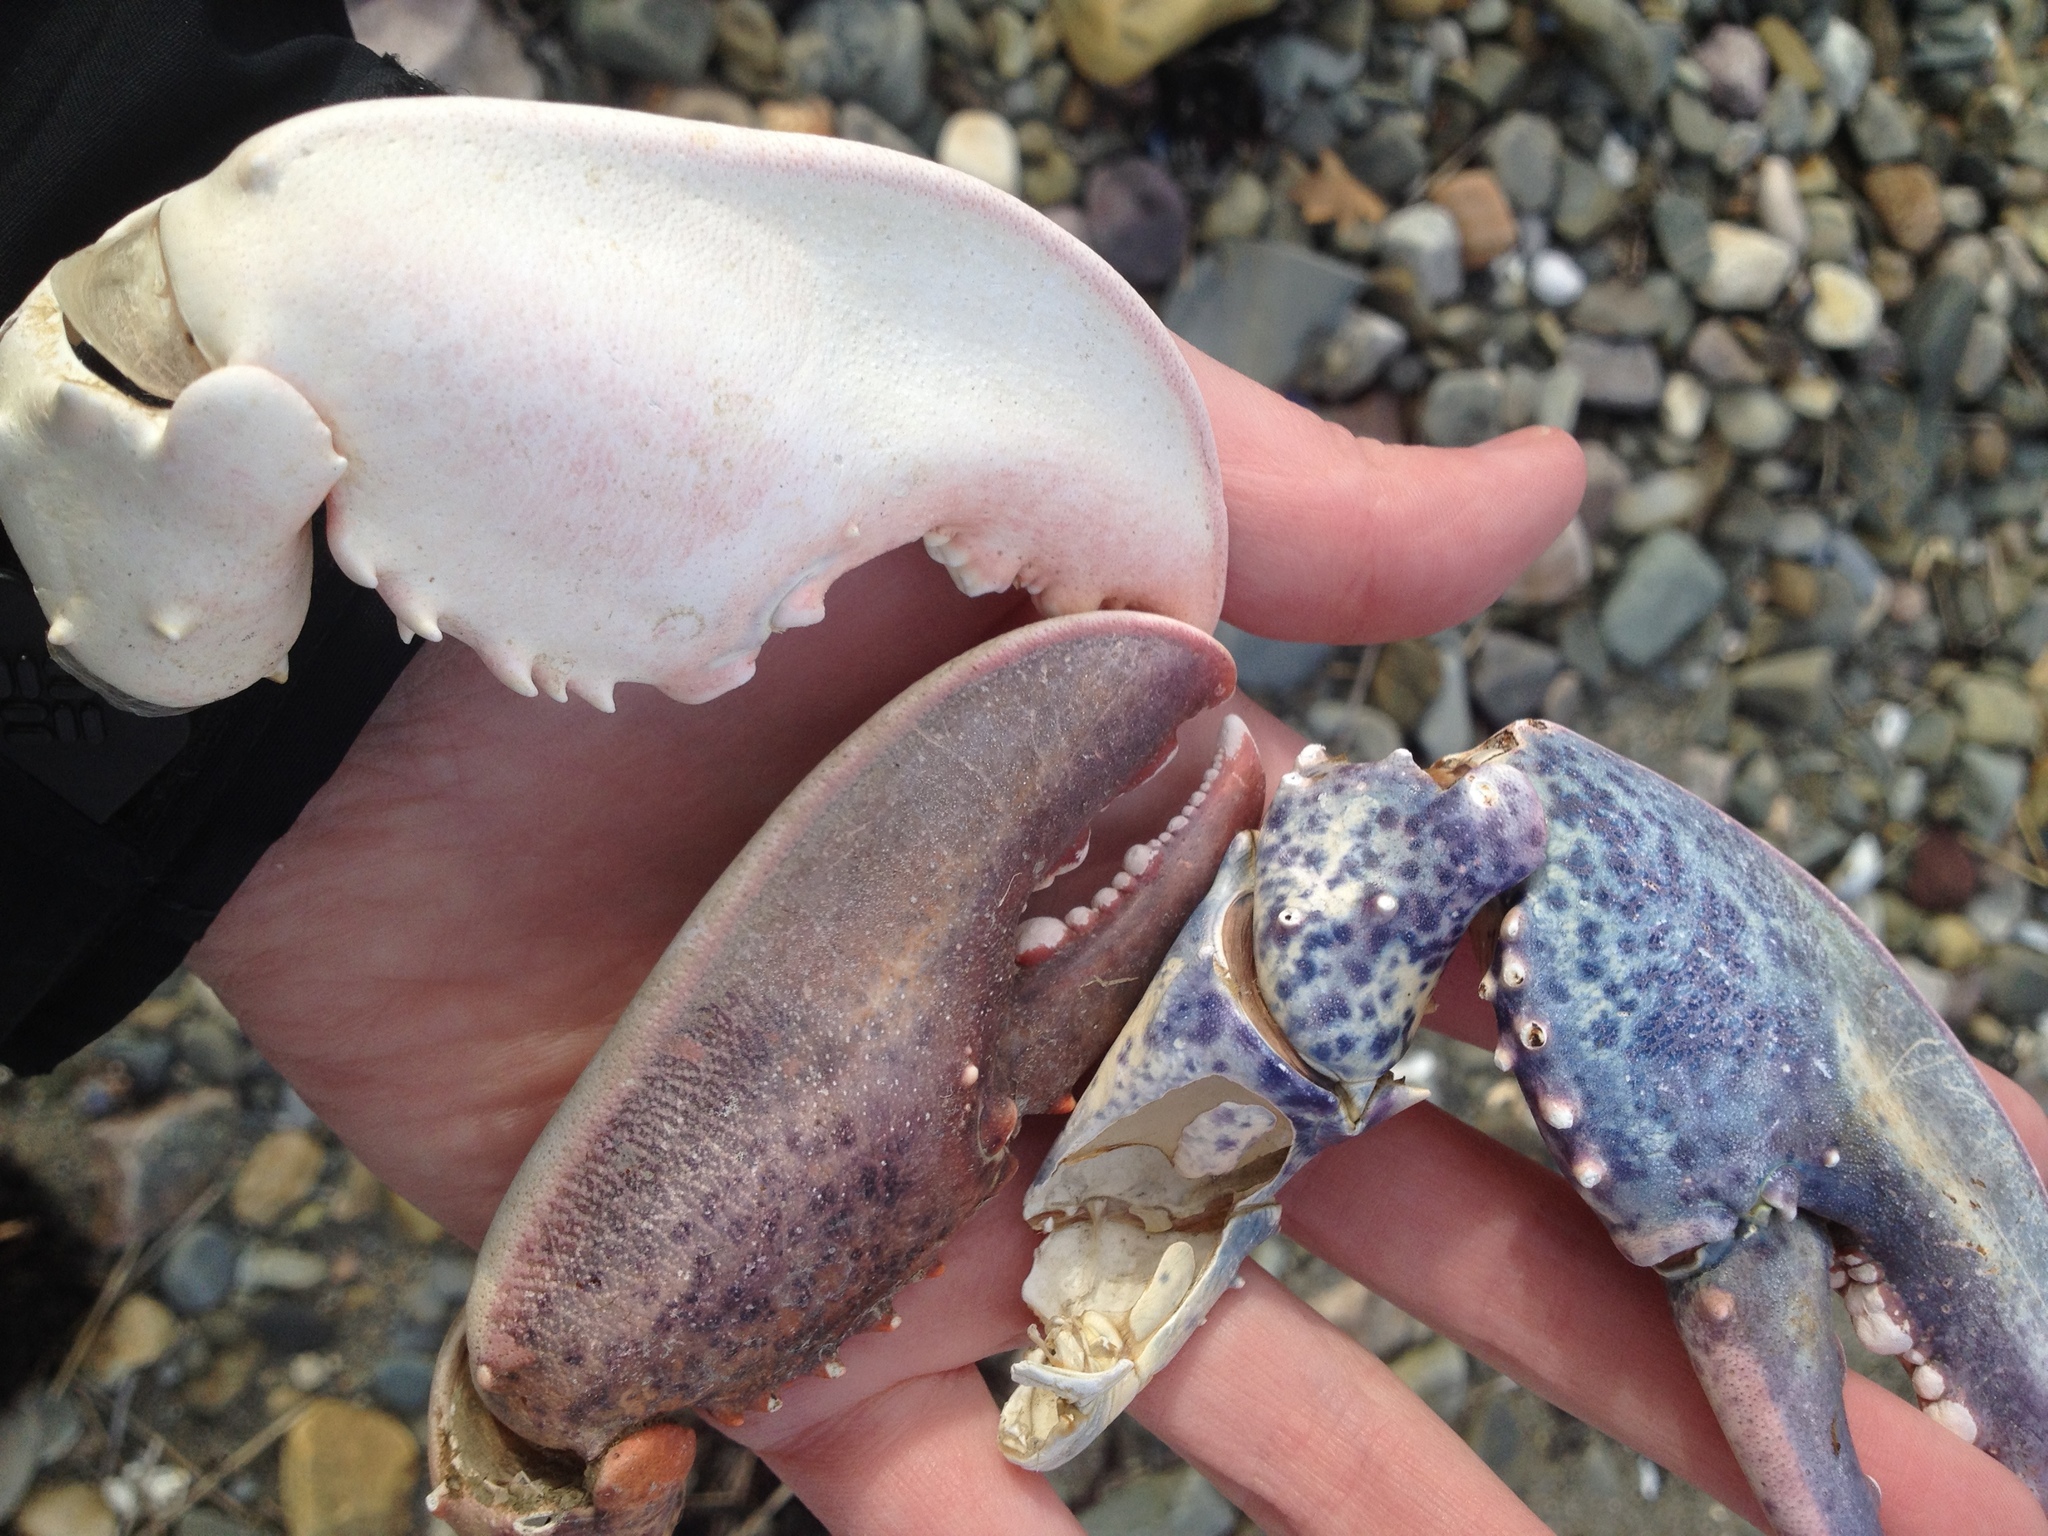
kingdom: Animalia
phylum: Arthropoda
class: Malacostraca
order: Decapoda
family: Nephropidae
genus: Homarus
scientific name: Homarus americanus
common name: American lobster
